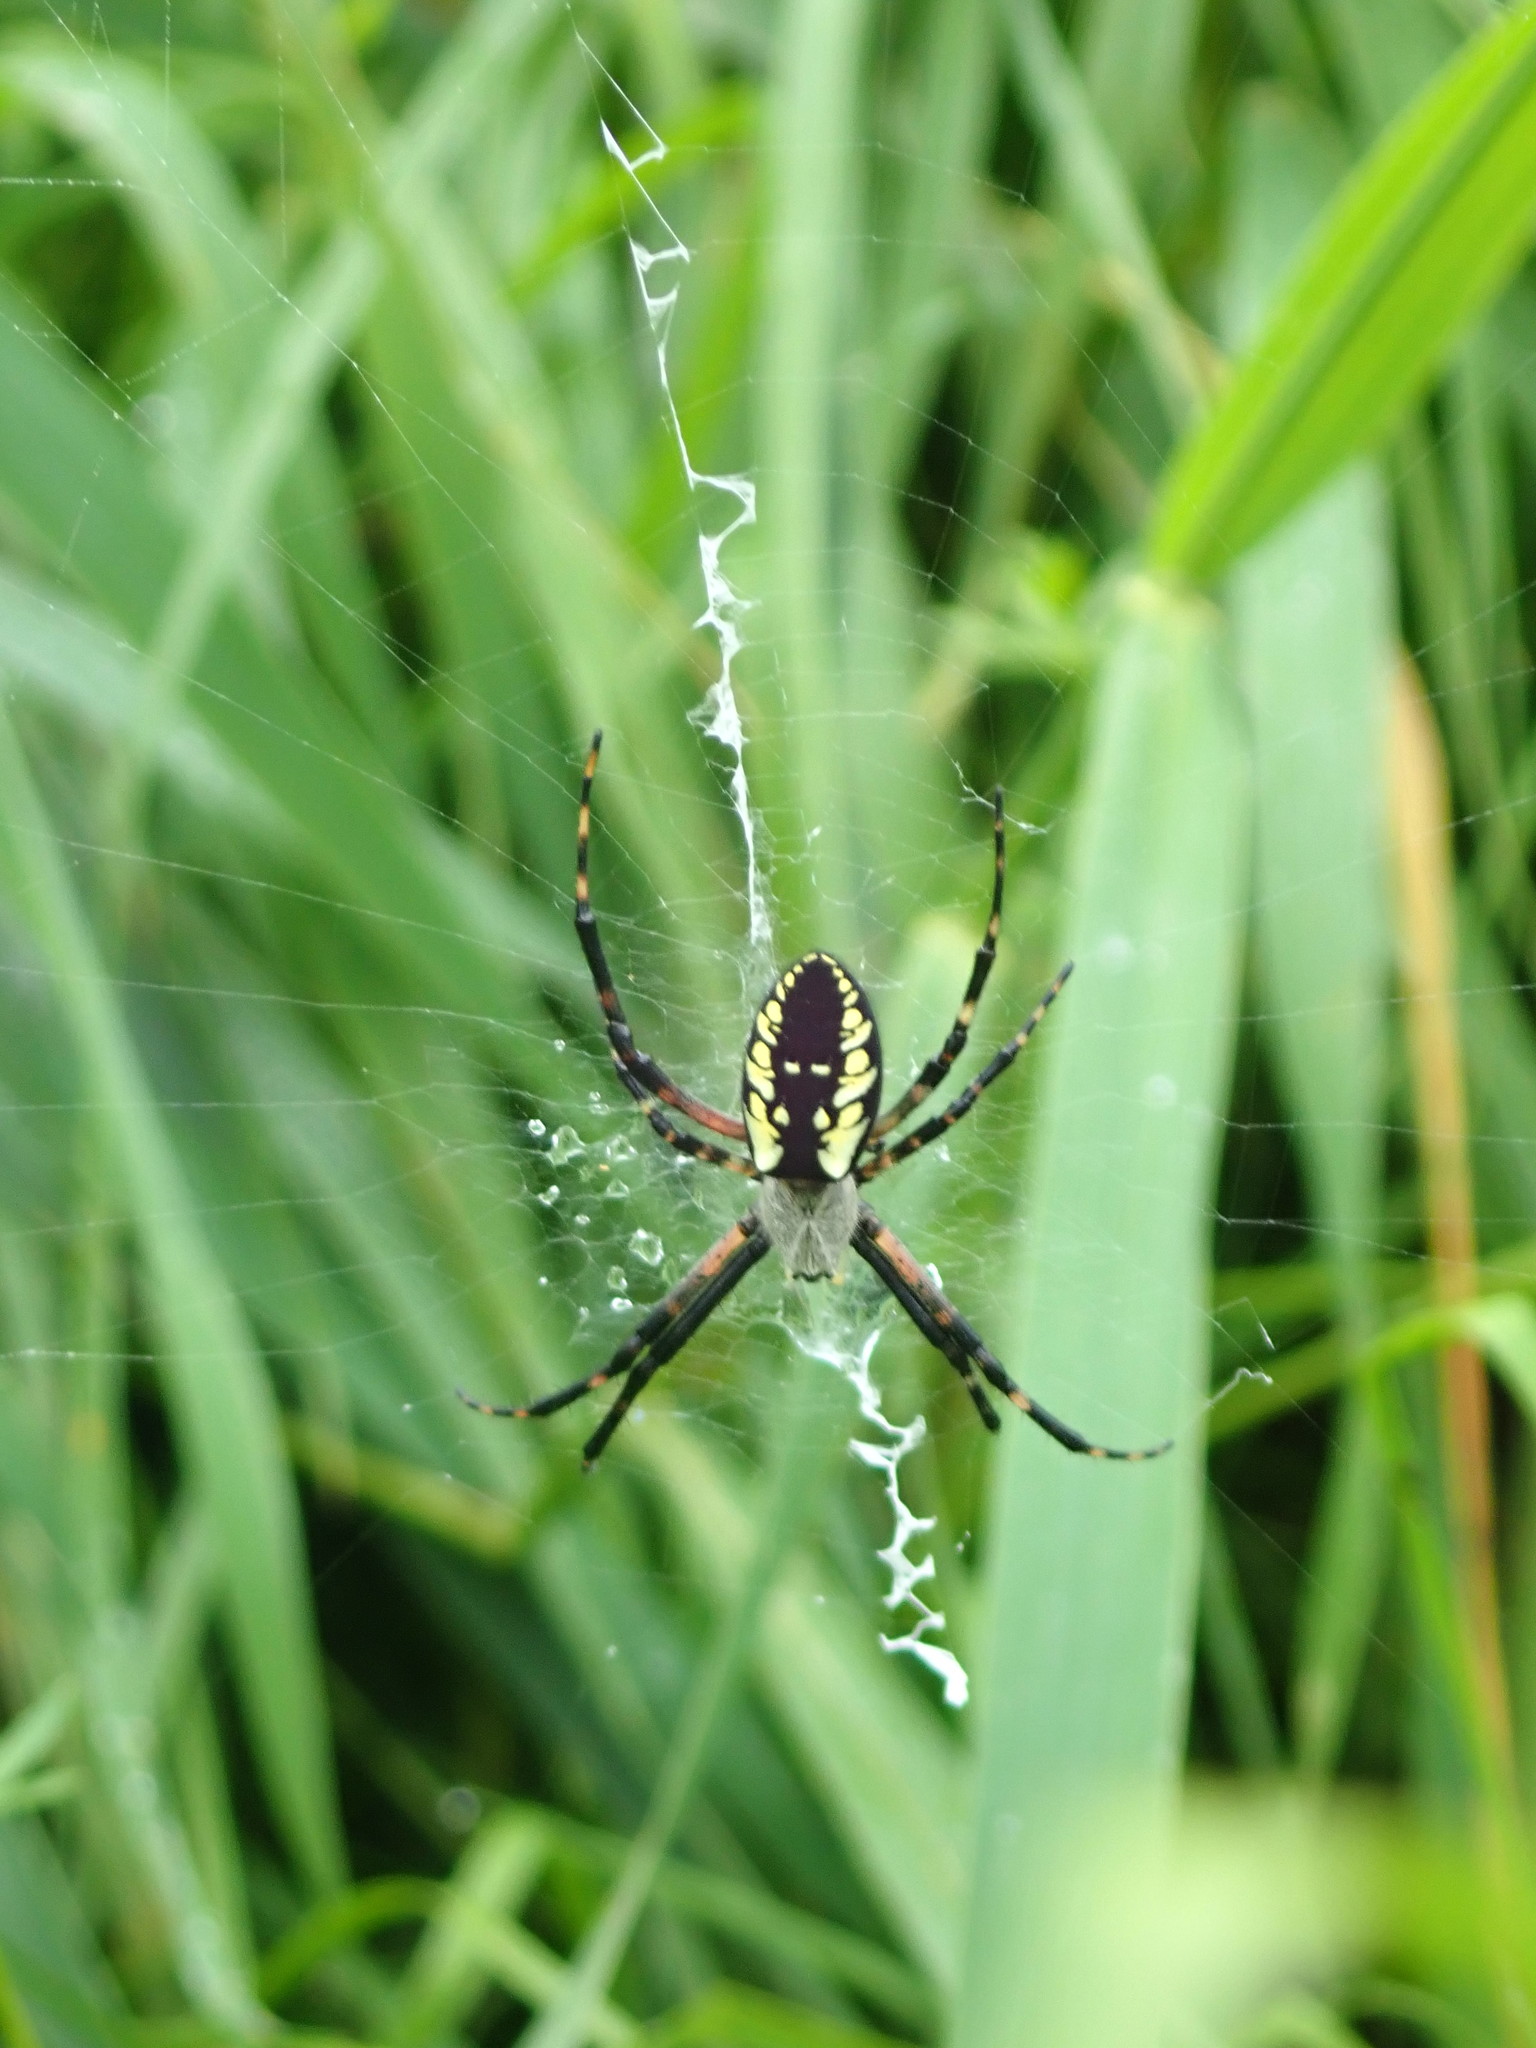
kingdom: Animalia
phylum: Arthropoda
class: Arachnida
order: Araneae
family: Araneidae
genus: Argiope
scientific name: Argiope aurantia
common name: Orb weavers
